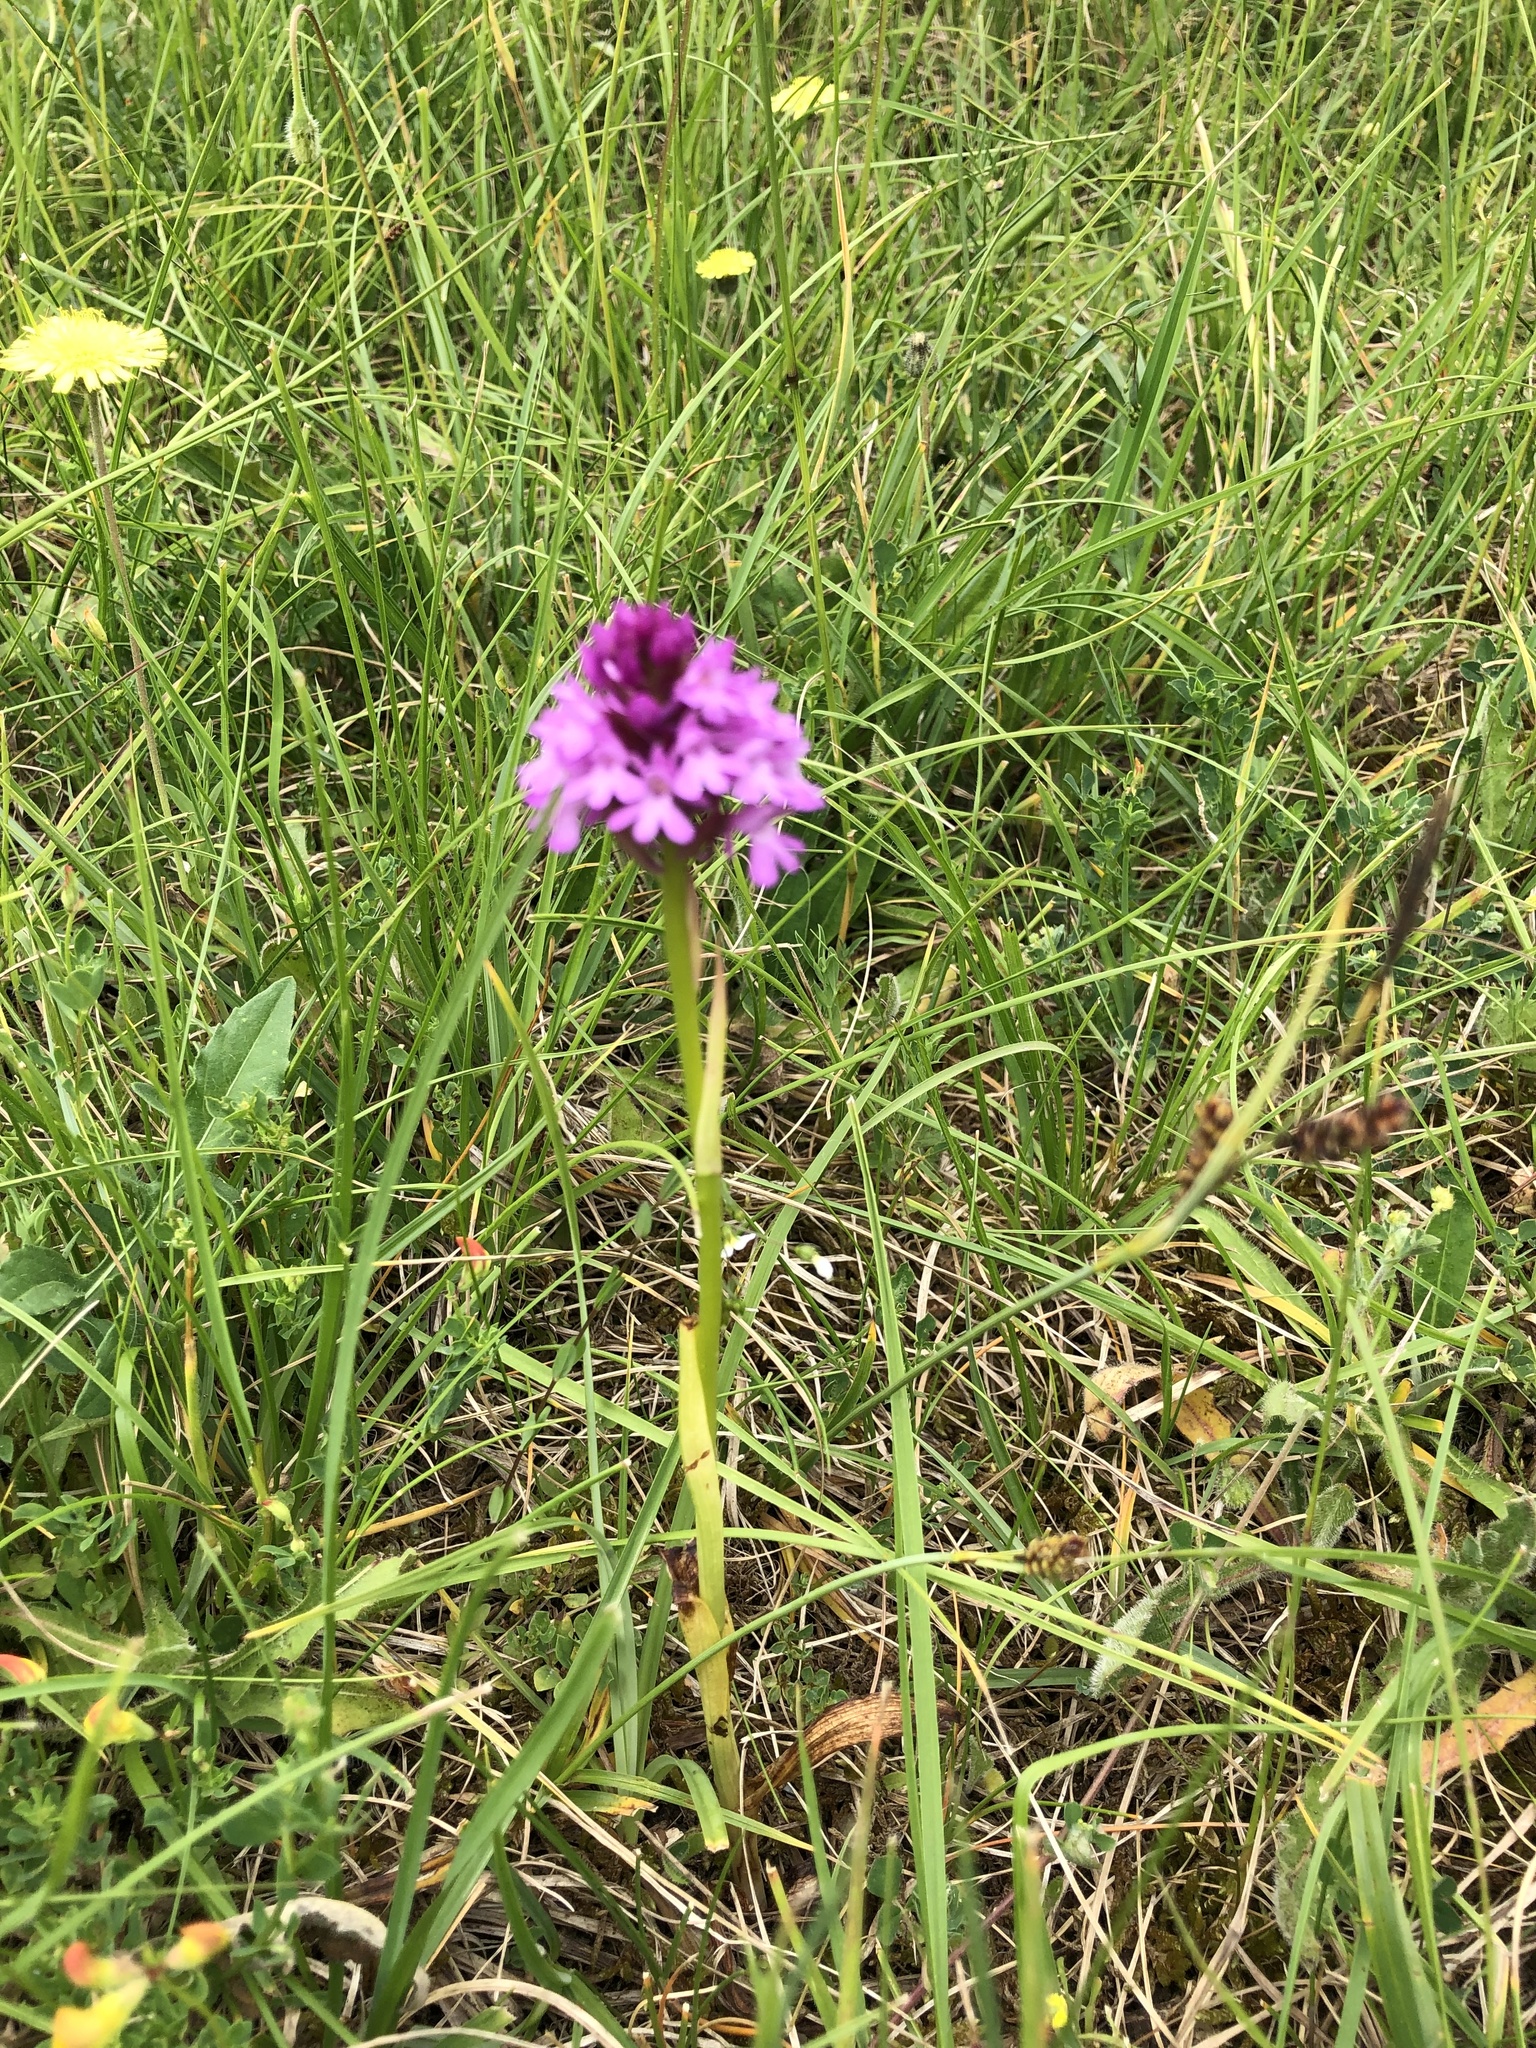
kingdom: Plantae
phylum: Tracheophyta
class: Liliopsida
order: Asparagales
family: Orchidaceae
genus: Anacamptis
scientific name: Anacamptis pyramidalis
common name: Pyramidal orchid
